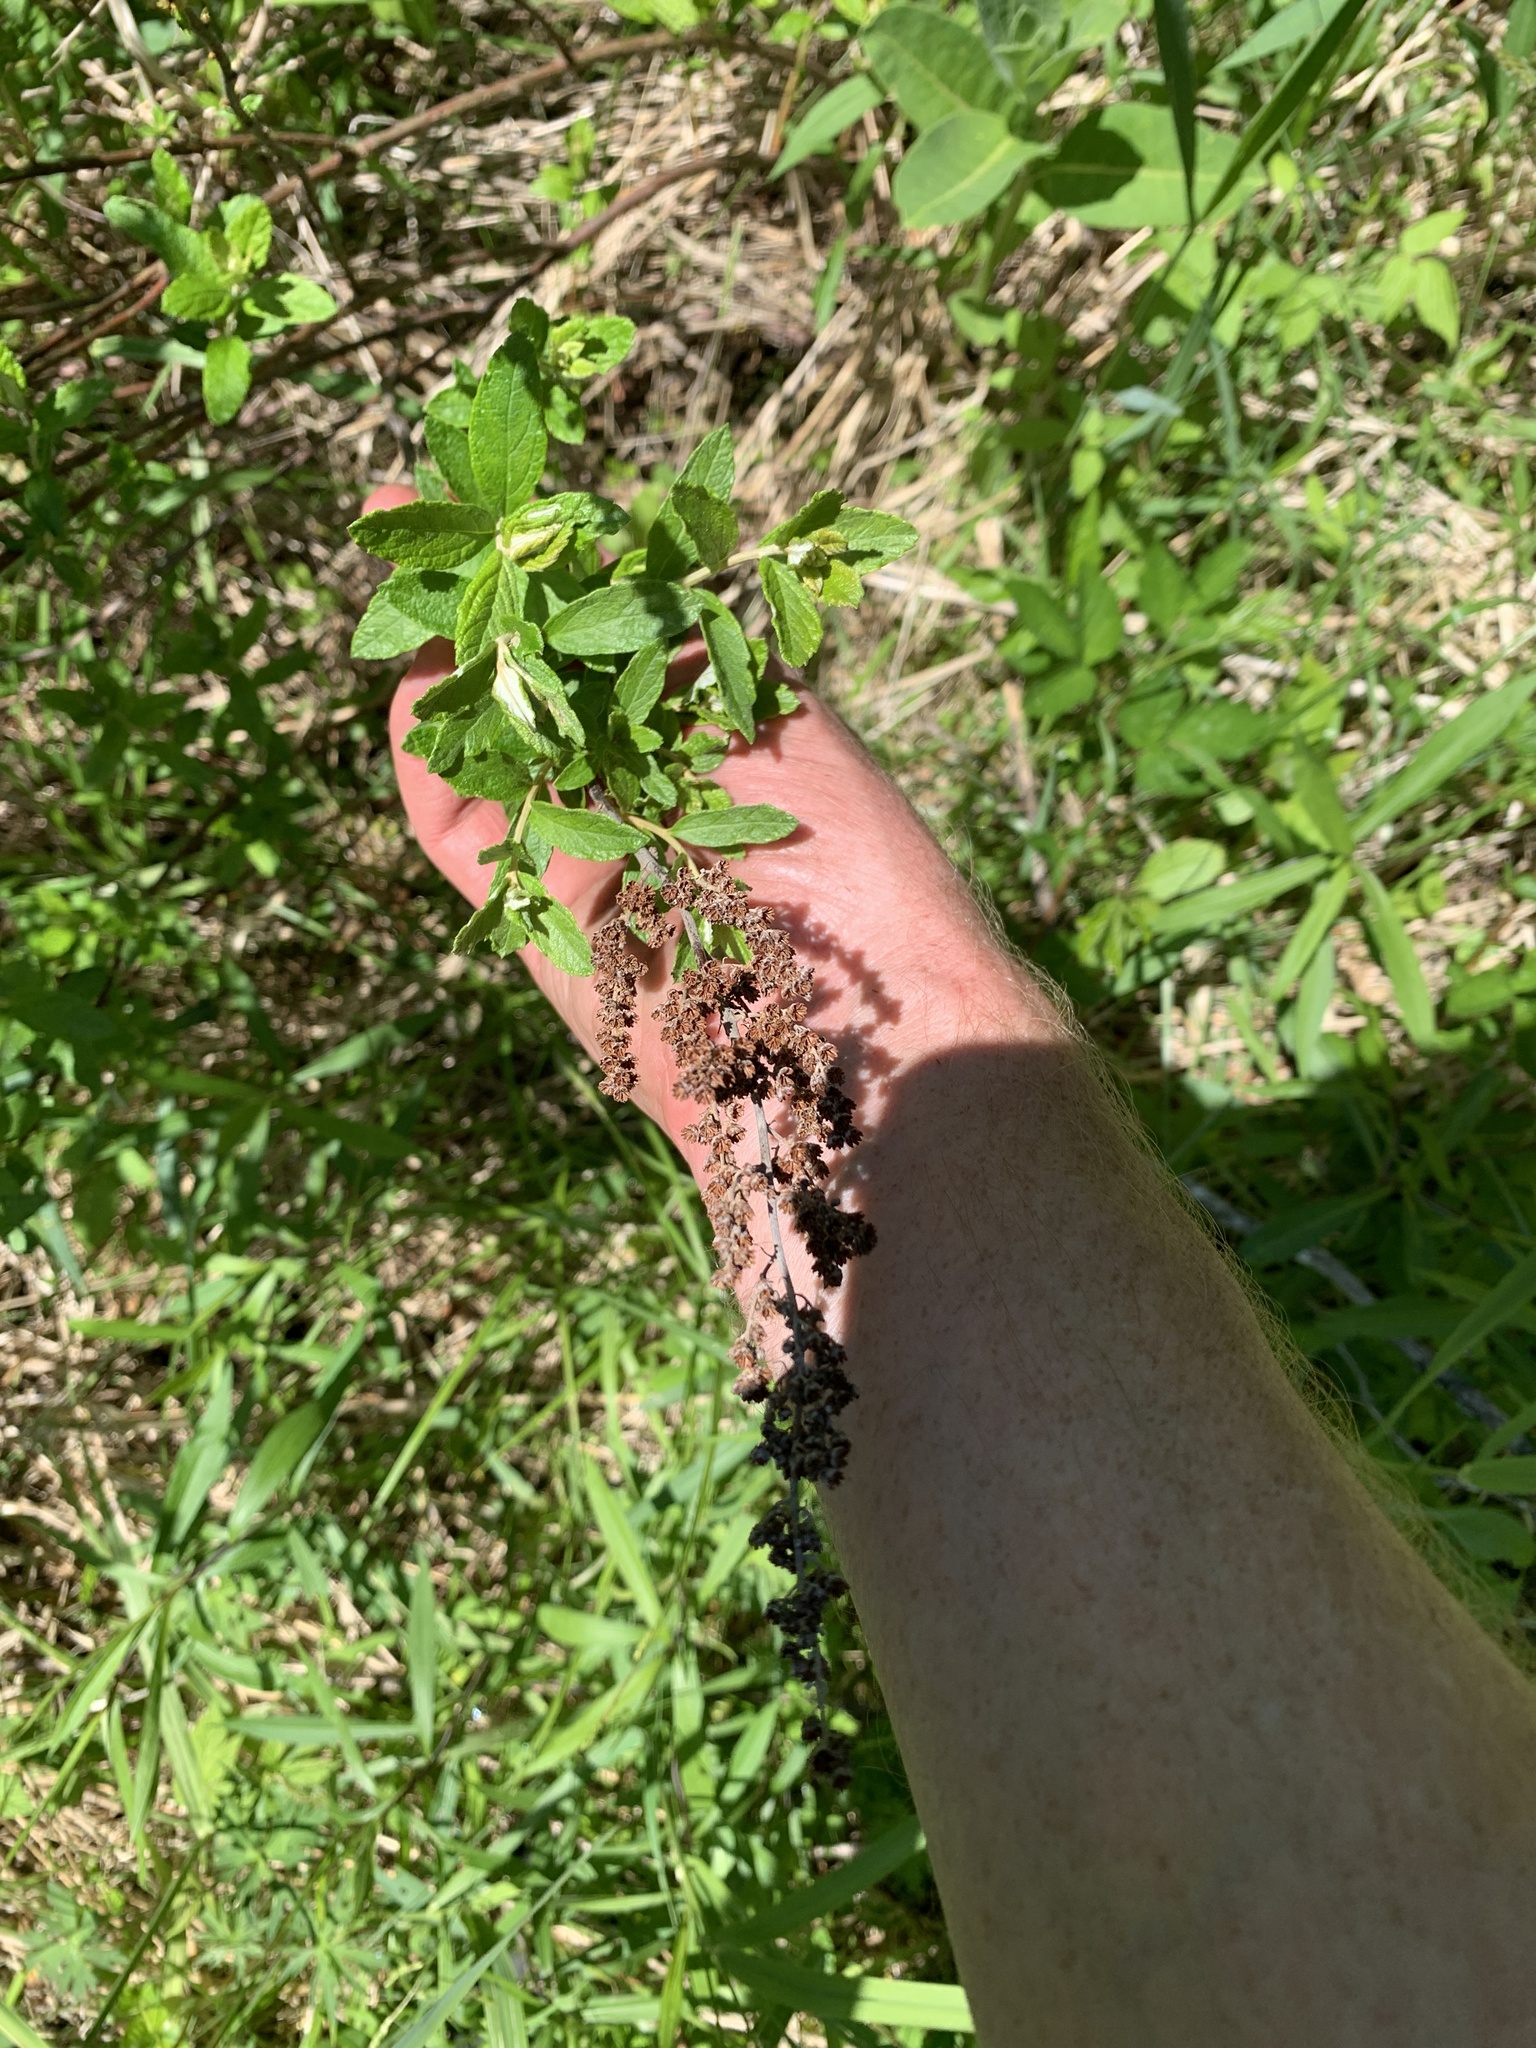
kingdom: Plantae
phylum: Tracheophyta
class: Magnoliopsida
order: Rosales
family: Rosaceae
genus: Spiraea
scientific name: Spiraea tomentosa
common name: Hardhack
